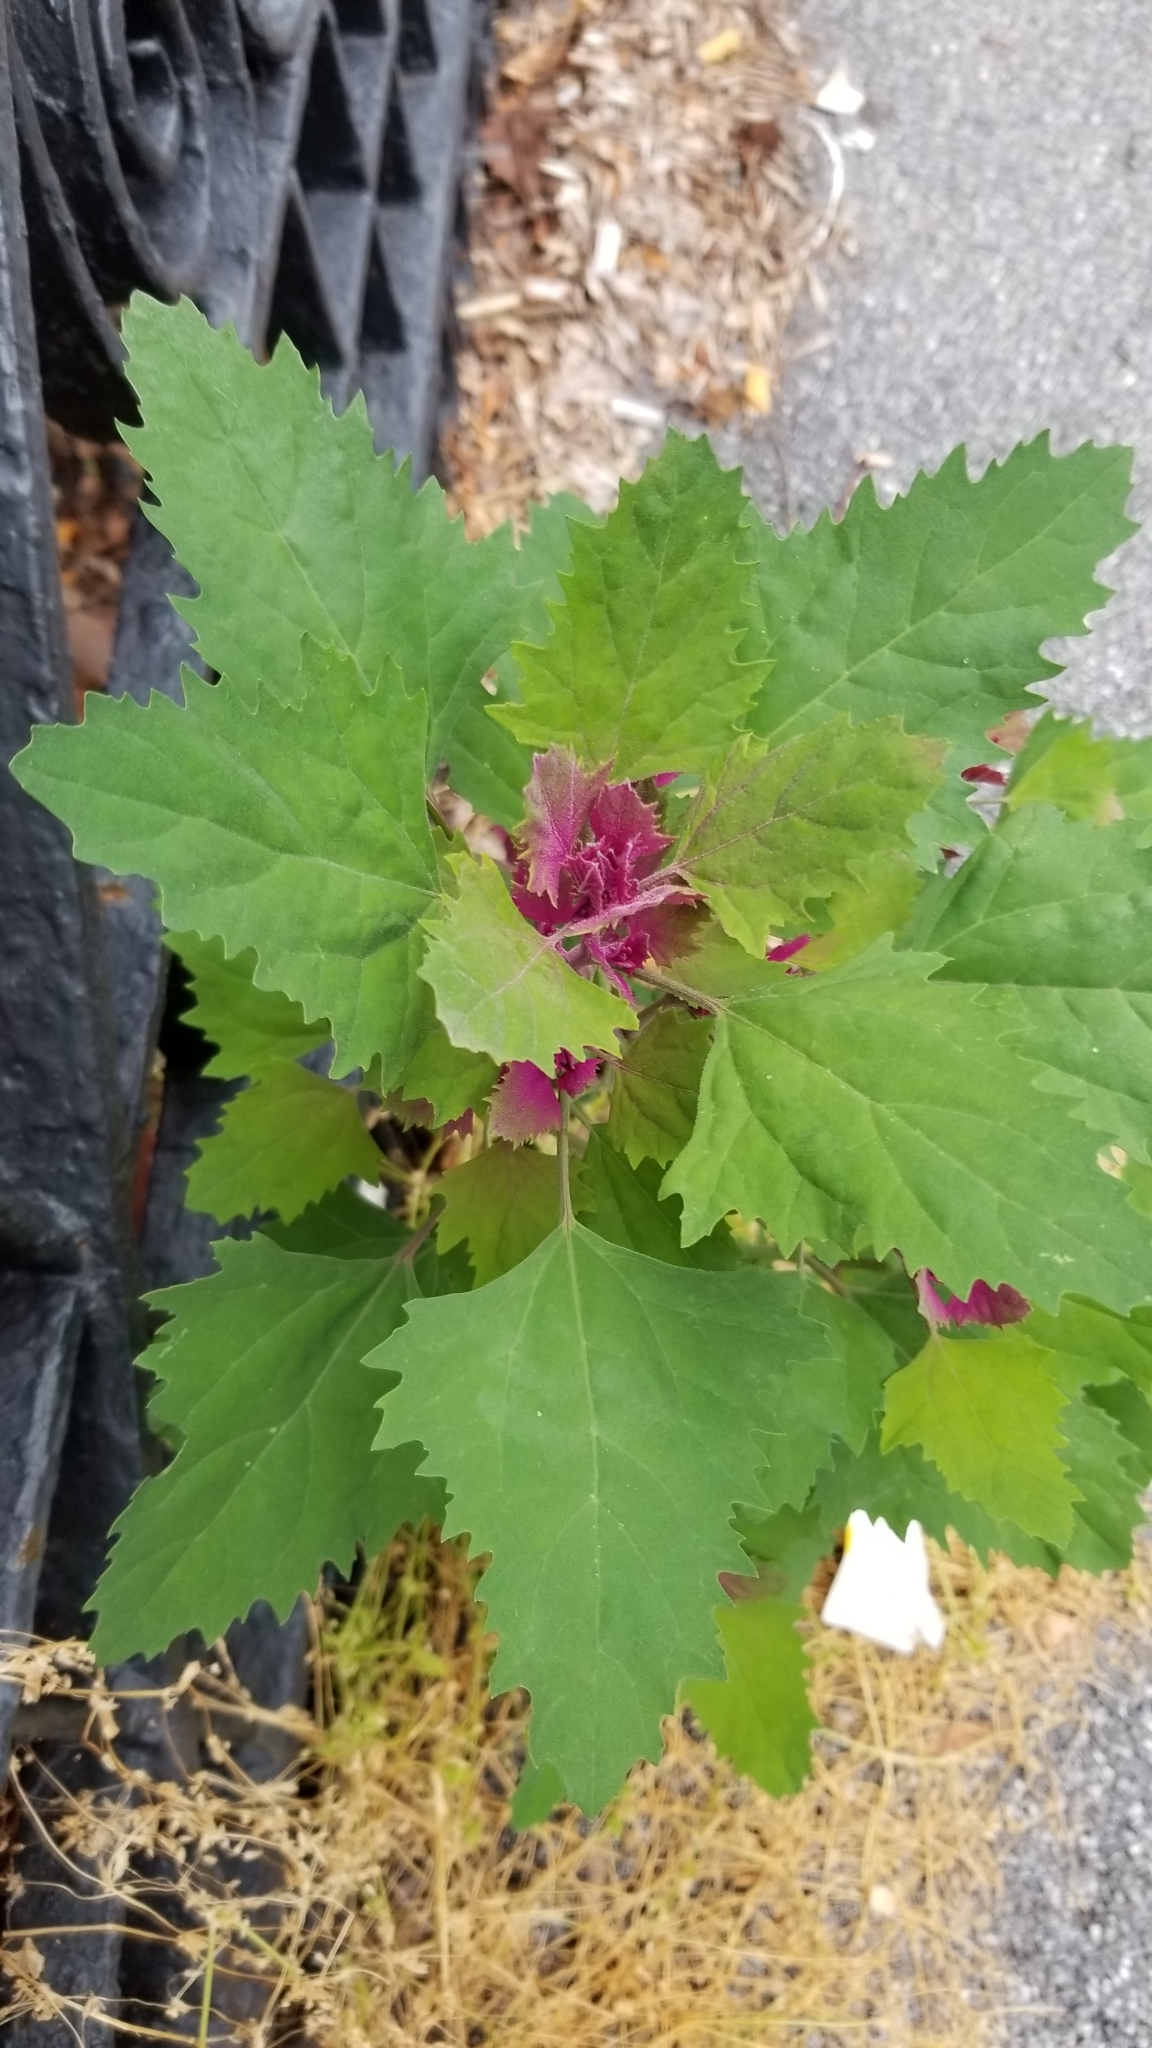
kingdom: Plantae
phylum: Tracheophyta
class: Magnoliopsida
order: Caryophyllales
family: Amaranthaceae
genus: Chenopodium
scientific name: Chenopodium album
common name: Fat-hen
